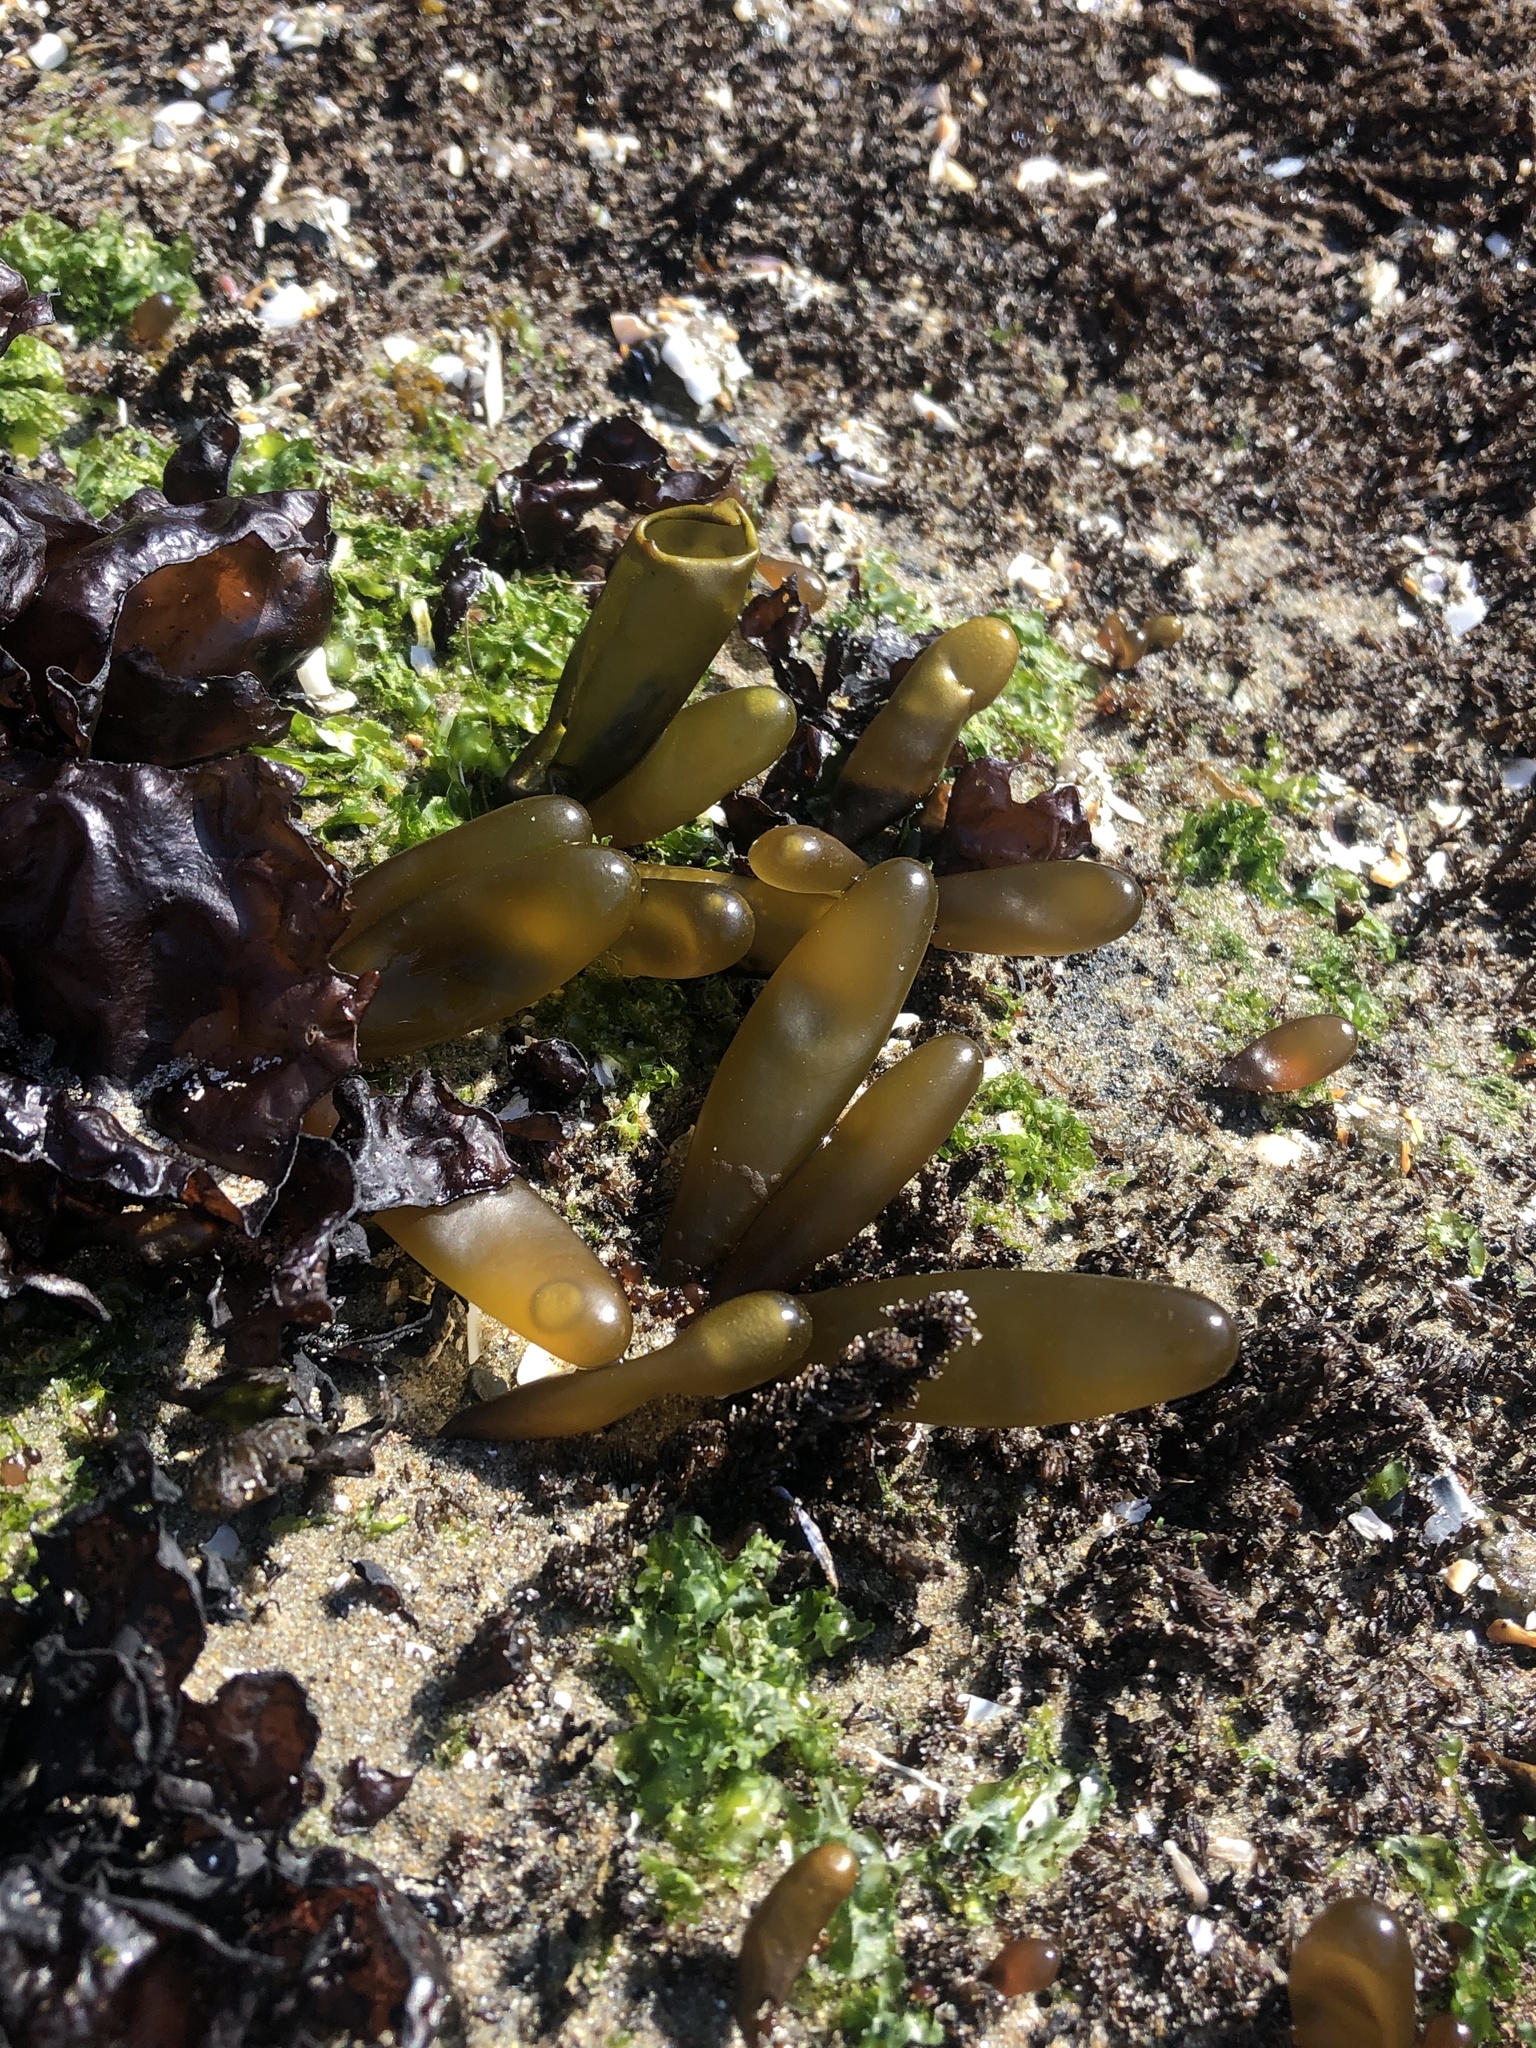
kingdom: Plantae
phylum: Rhodophyta
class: Florideophyceae
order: Palmariales
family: Palmariaceae
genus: Halosaccion
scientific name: Halosaccion glandiforme
